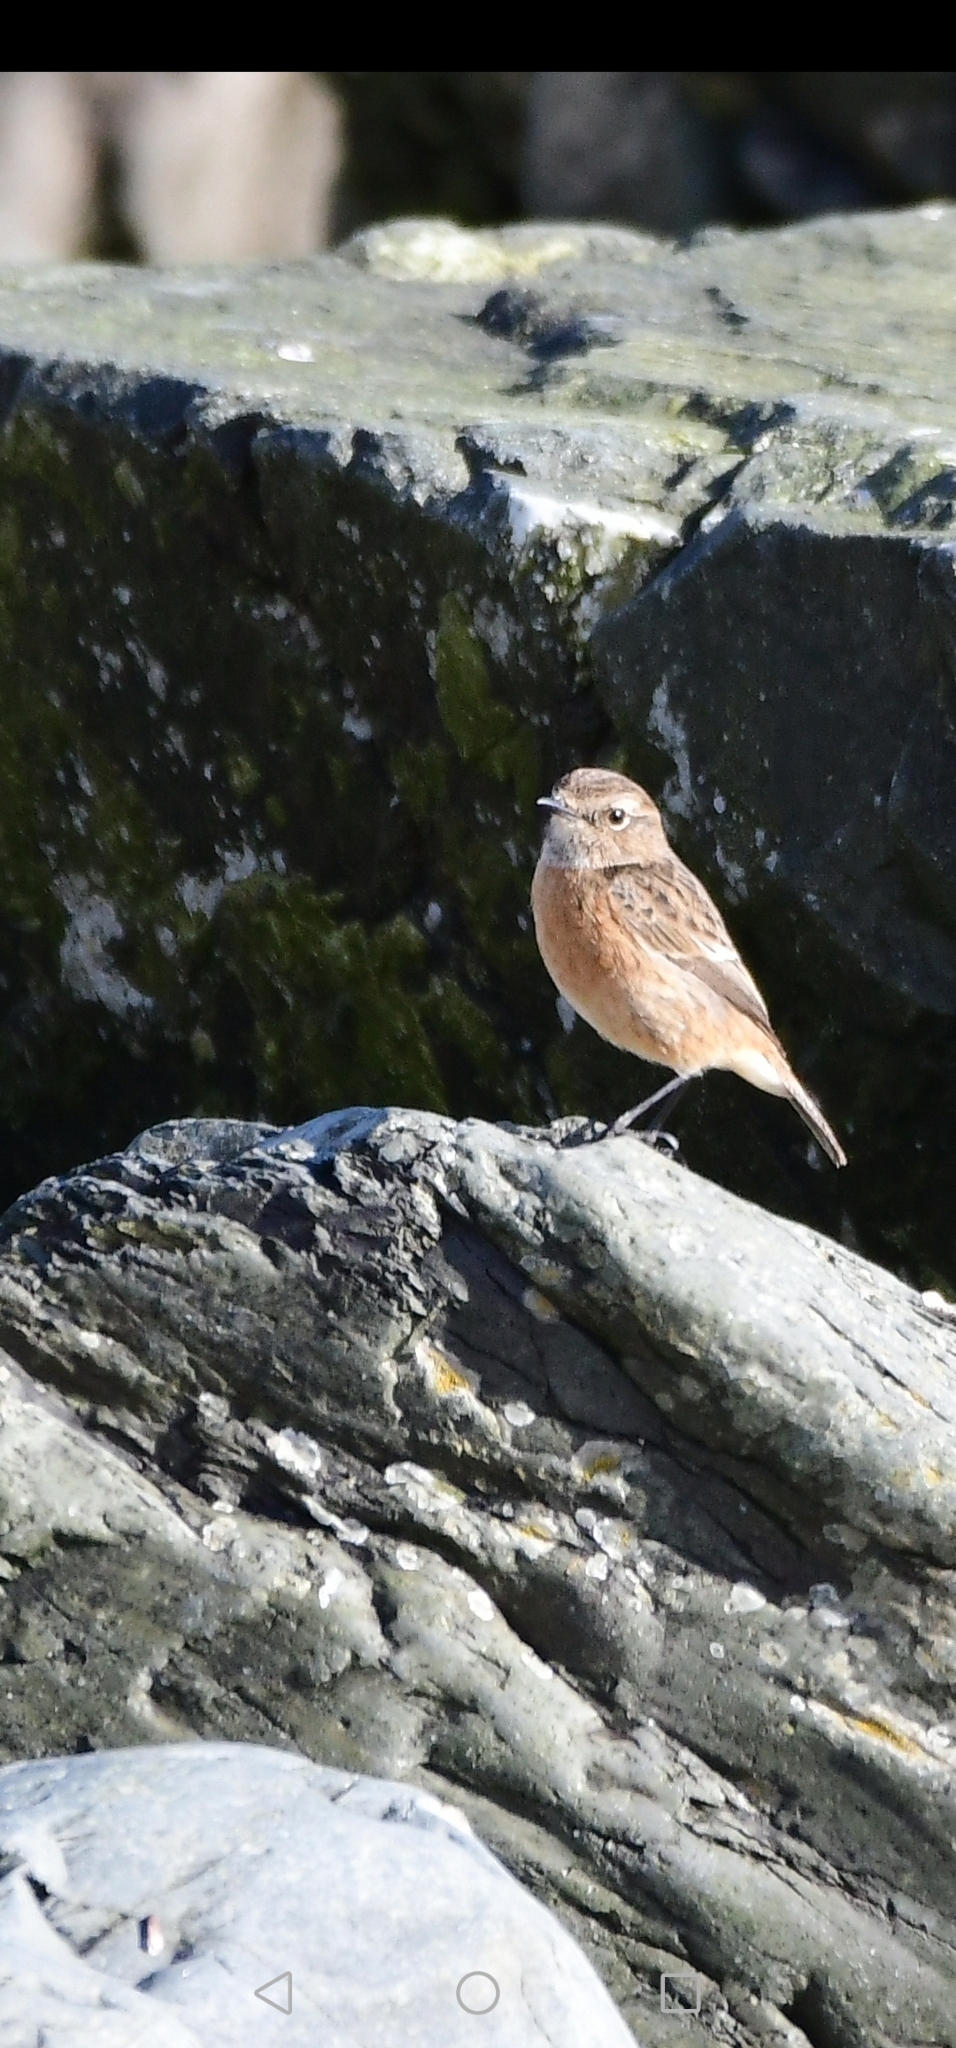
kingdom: Animalia
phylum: Chordata
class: Aves
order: Passeriformes
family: Muscicapidae
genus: Saxicola
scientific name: Saxicola rubicola
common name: European stonechat
